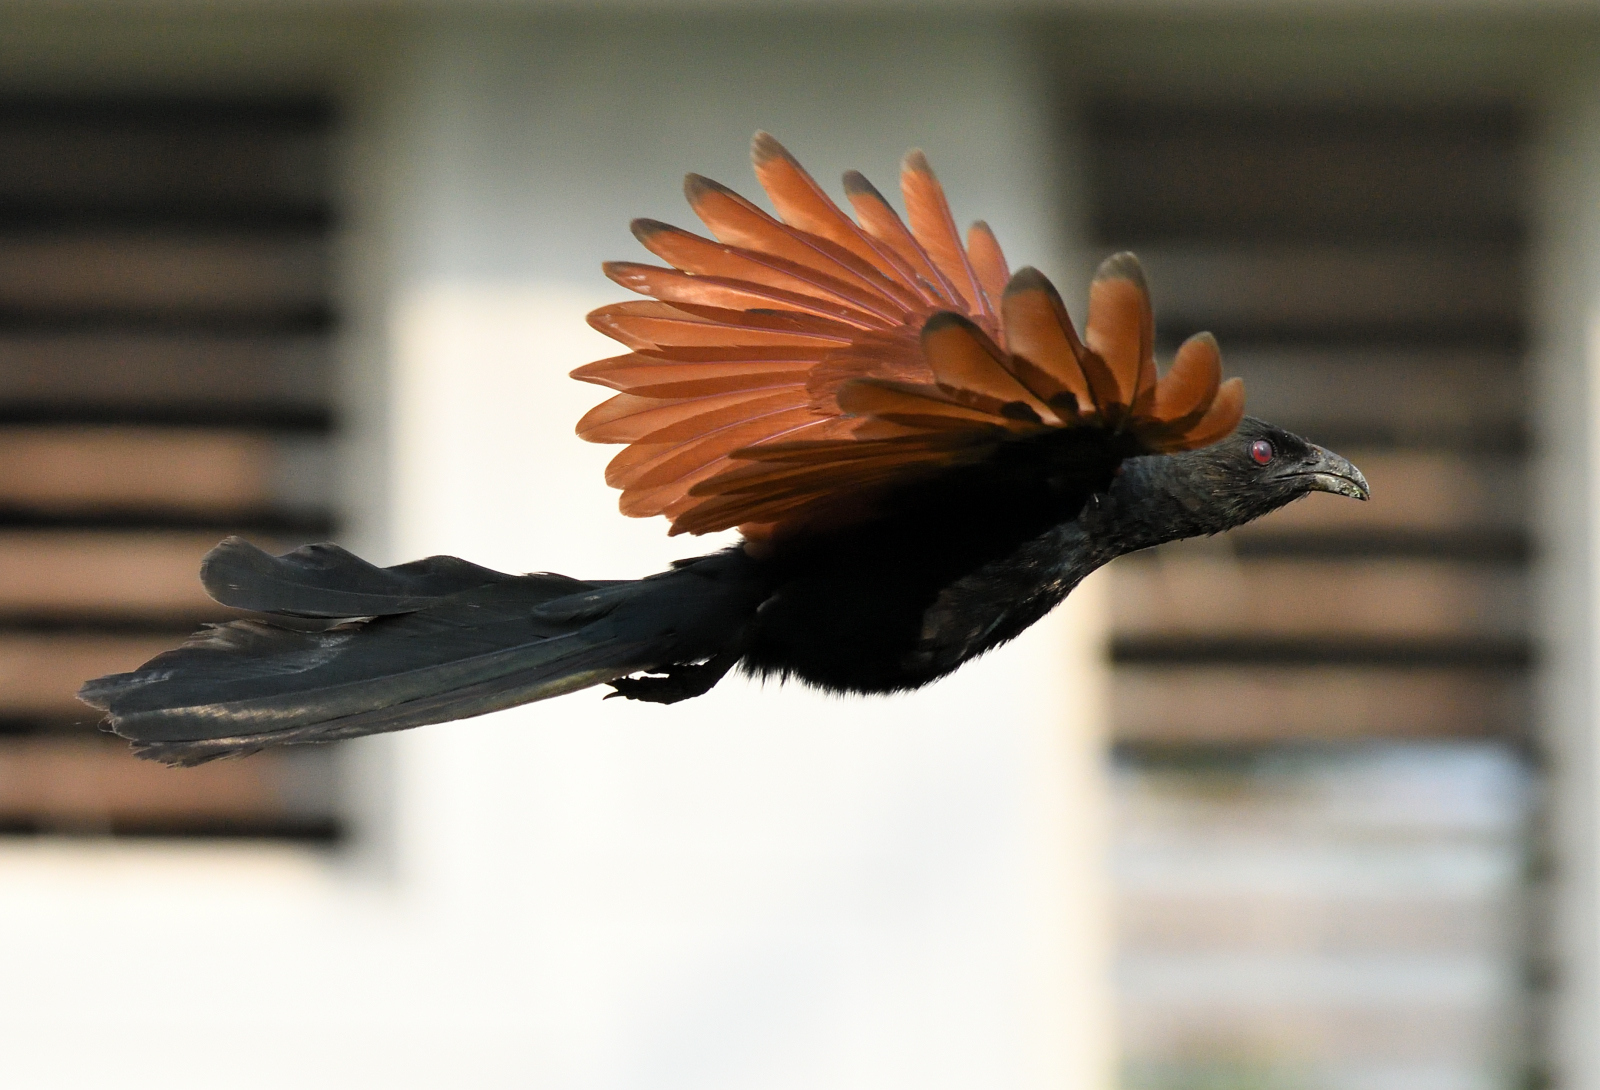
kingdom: Animalia
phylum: Chordata
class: Aves
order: Cuculiformes
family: Cuculidae
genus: Centropus
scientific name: Centropus sinensis
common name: Greater coucal
